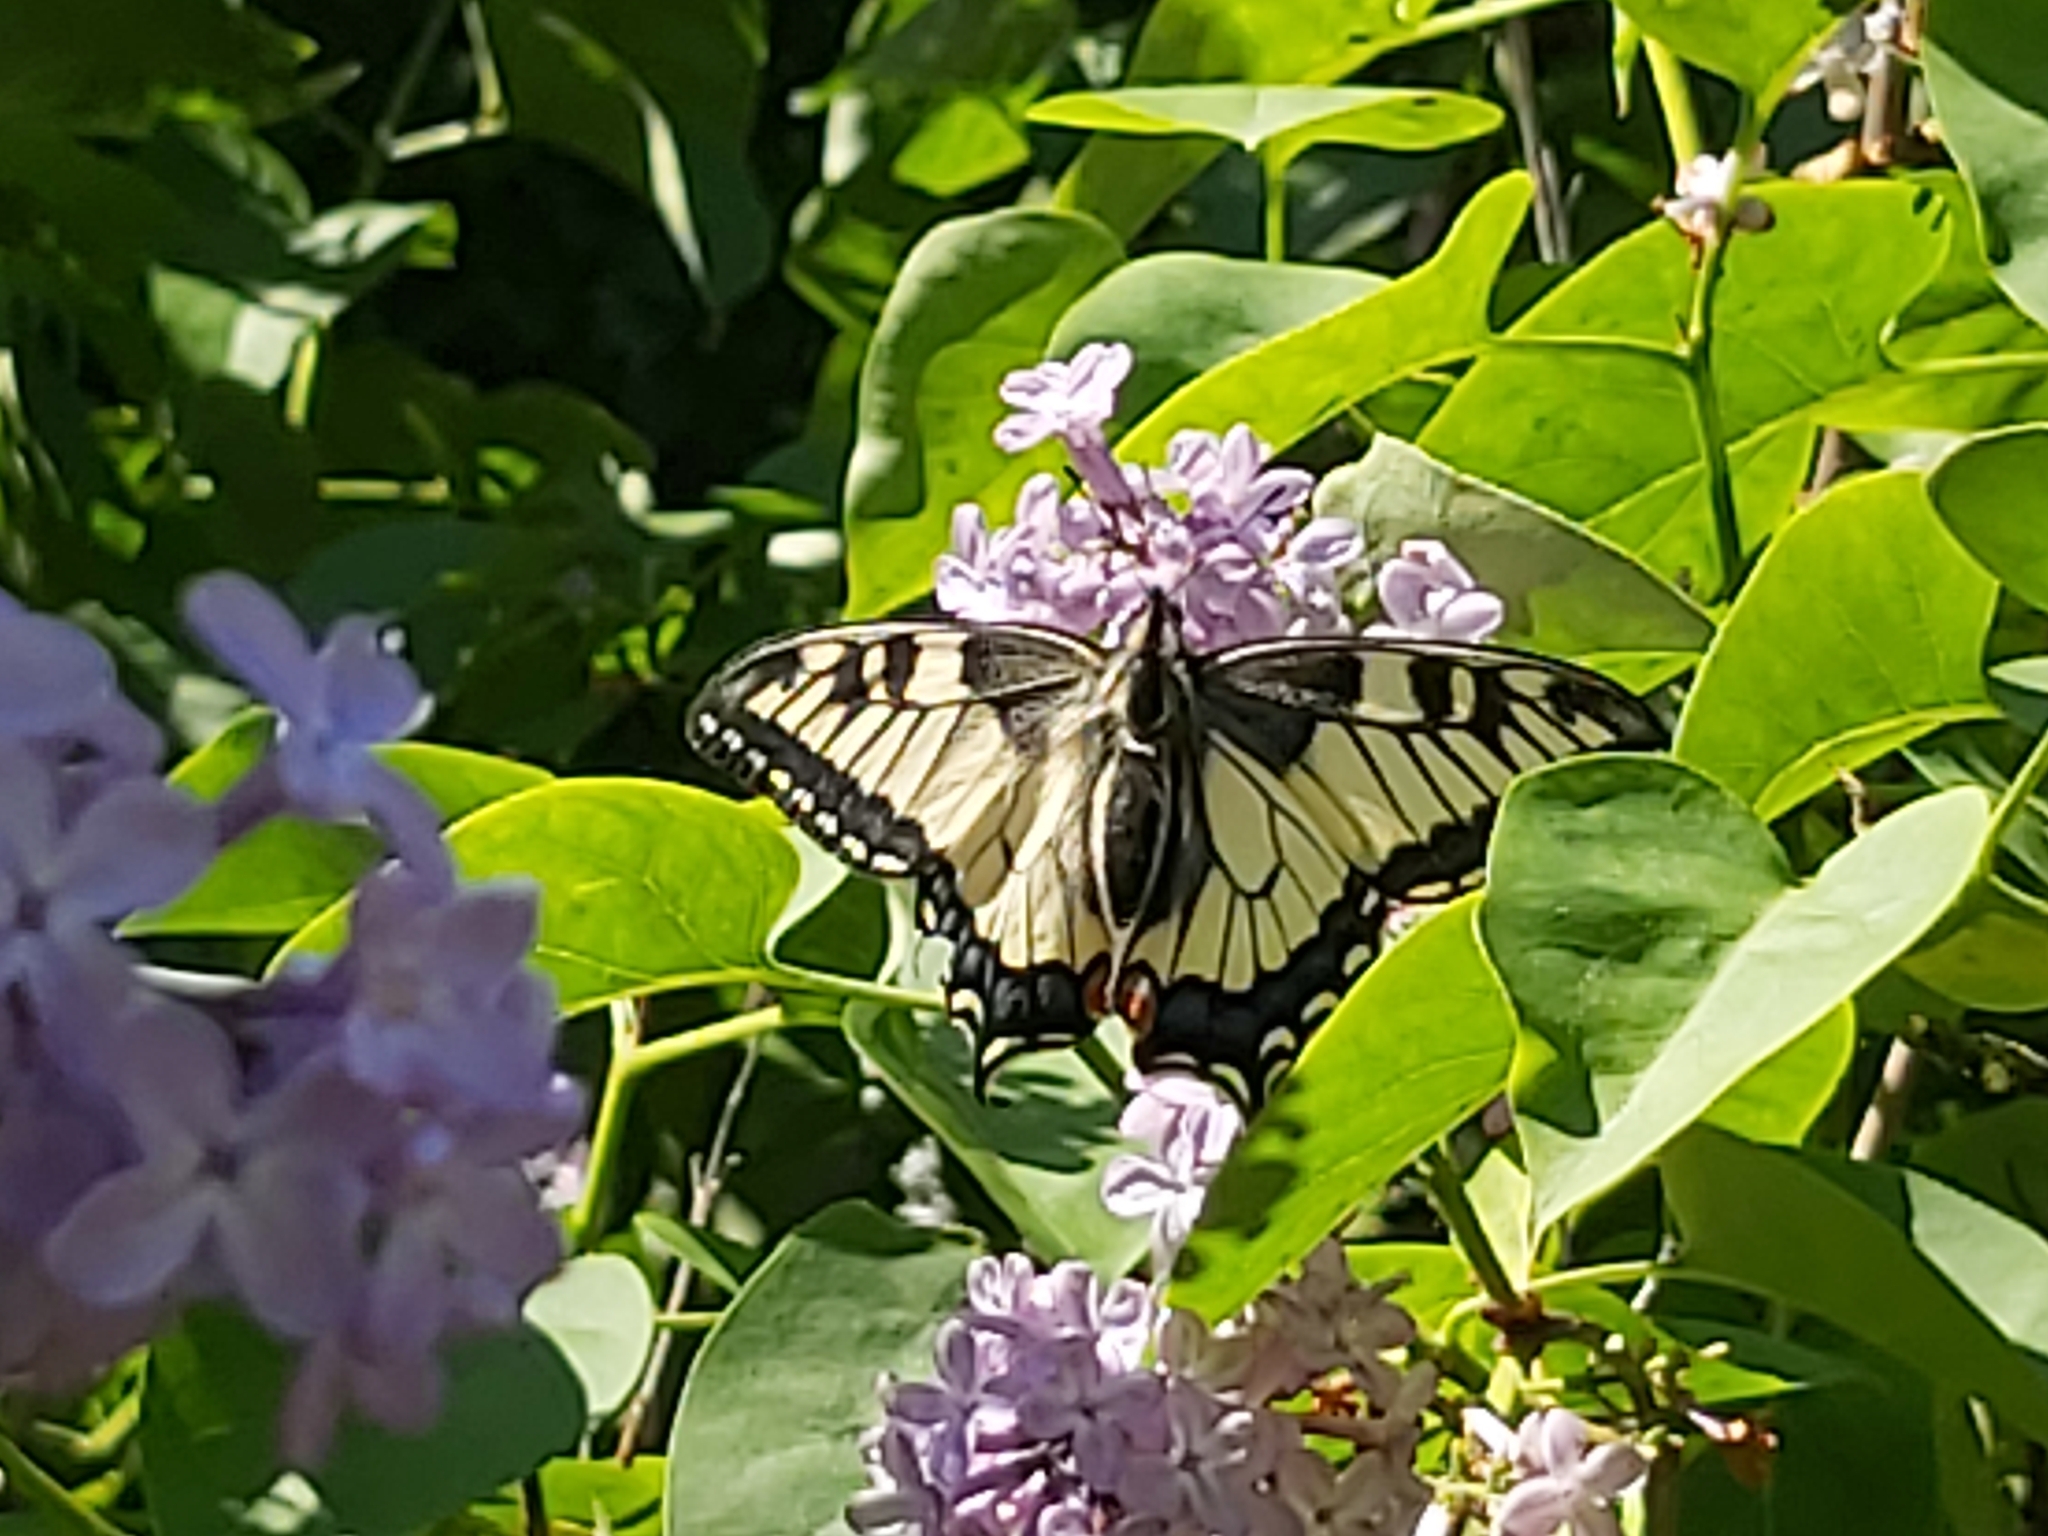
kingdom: Animalia
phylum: Arthropoda
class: Insecta
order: Lepidoptera
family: Papilionidae
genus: Papilio
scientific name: Papilio machaon
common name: Swallowtail
